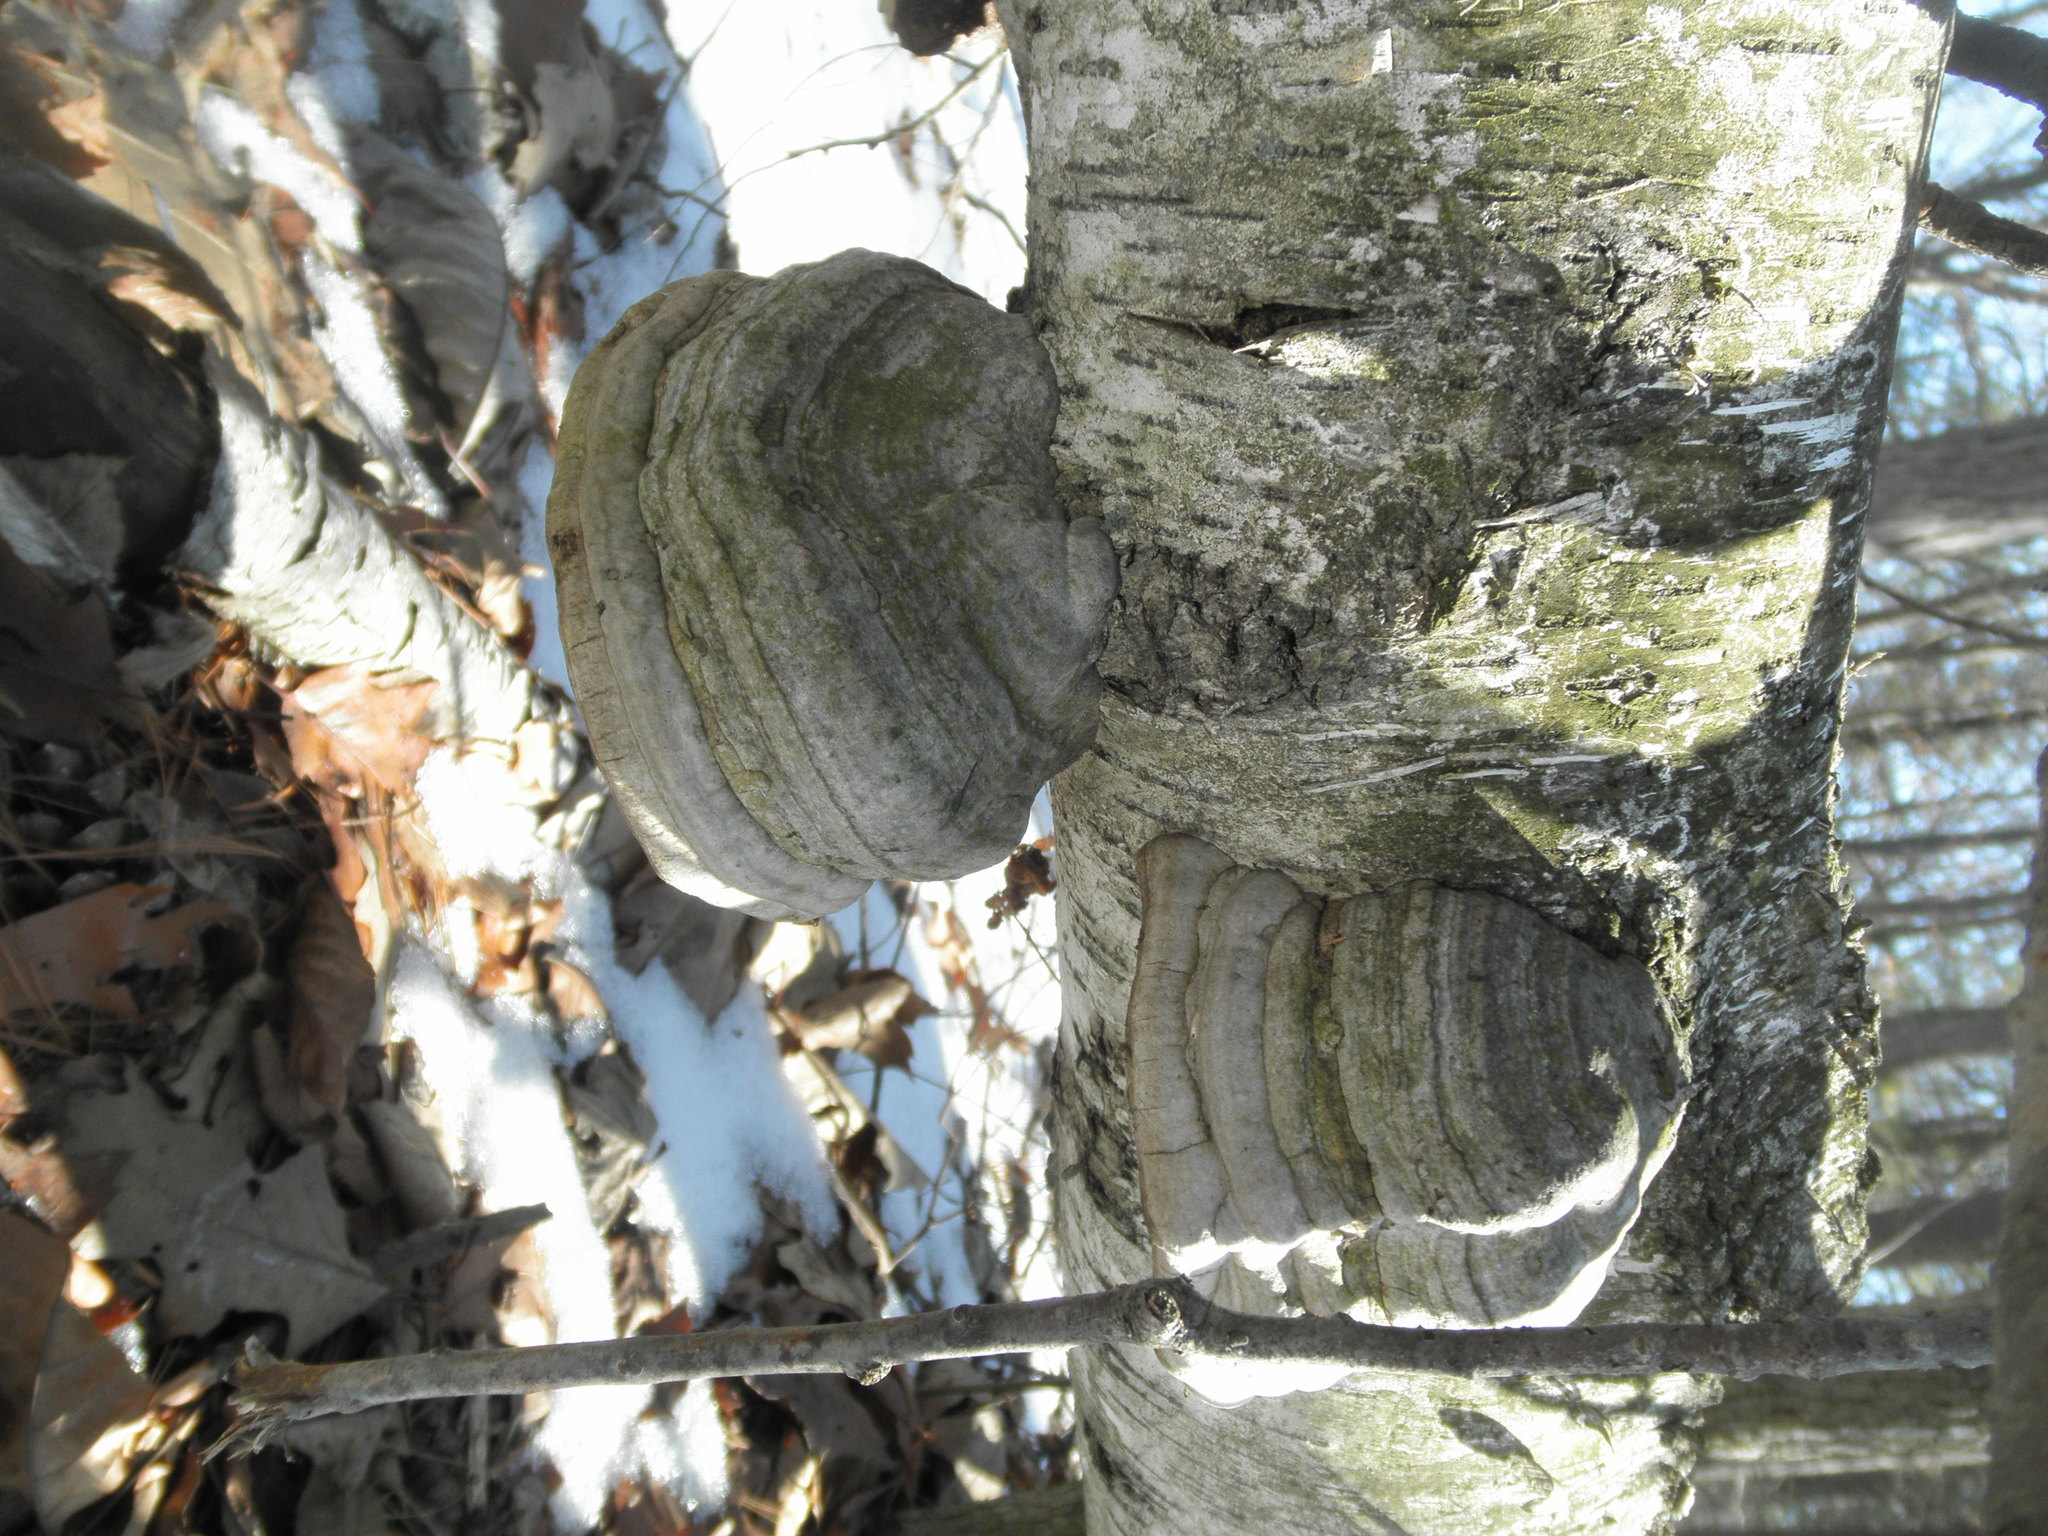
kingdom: Fungi
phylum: Basidiomycota
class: Agaricomycetes
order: Polyporales
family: Polyporaceae
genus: Fomes
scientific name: Fomes fomentarius
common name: Hoof fungus
